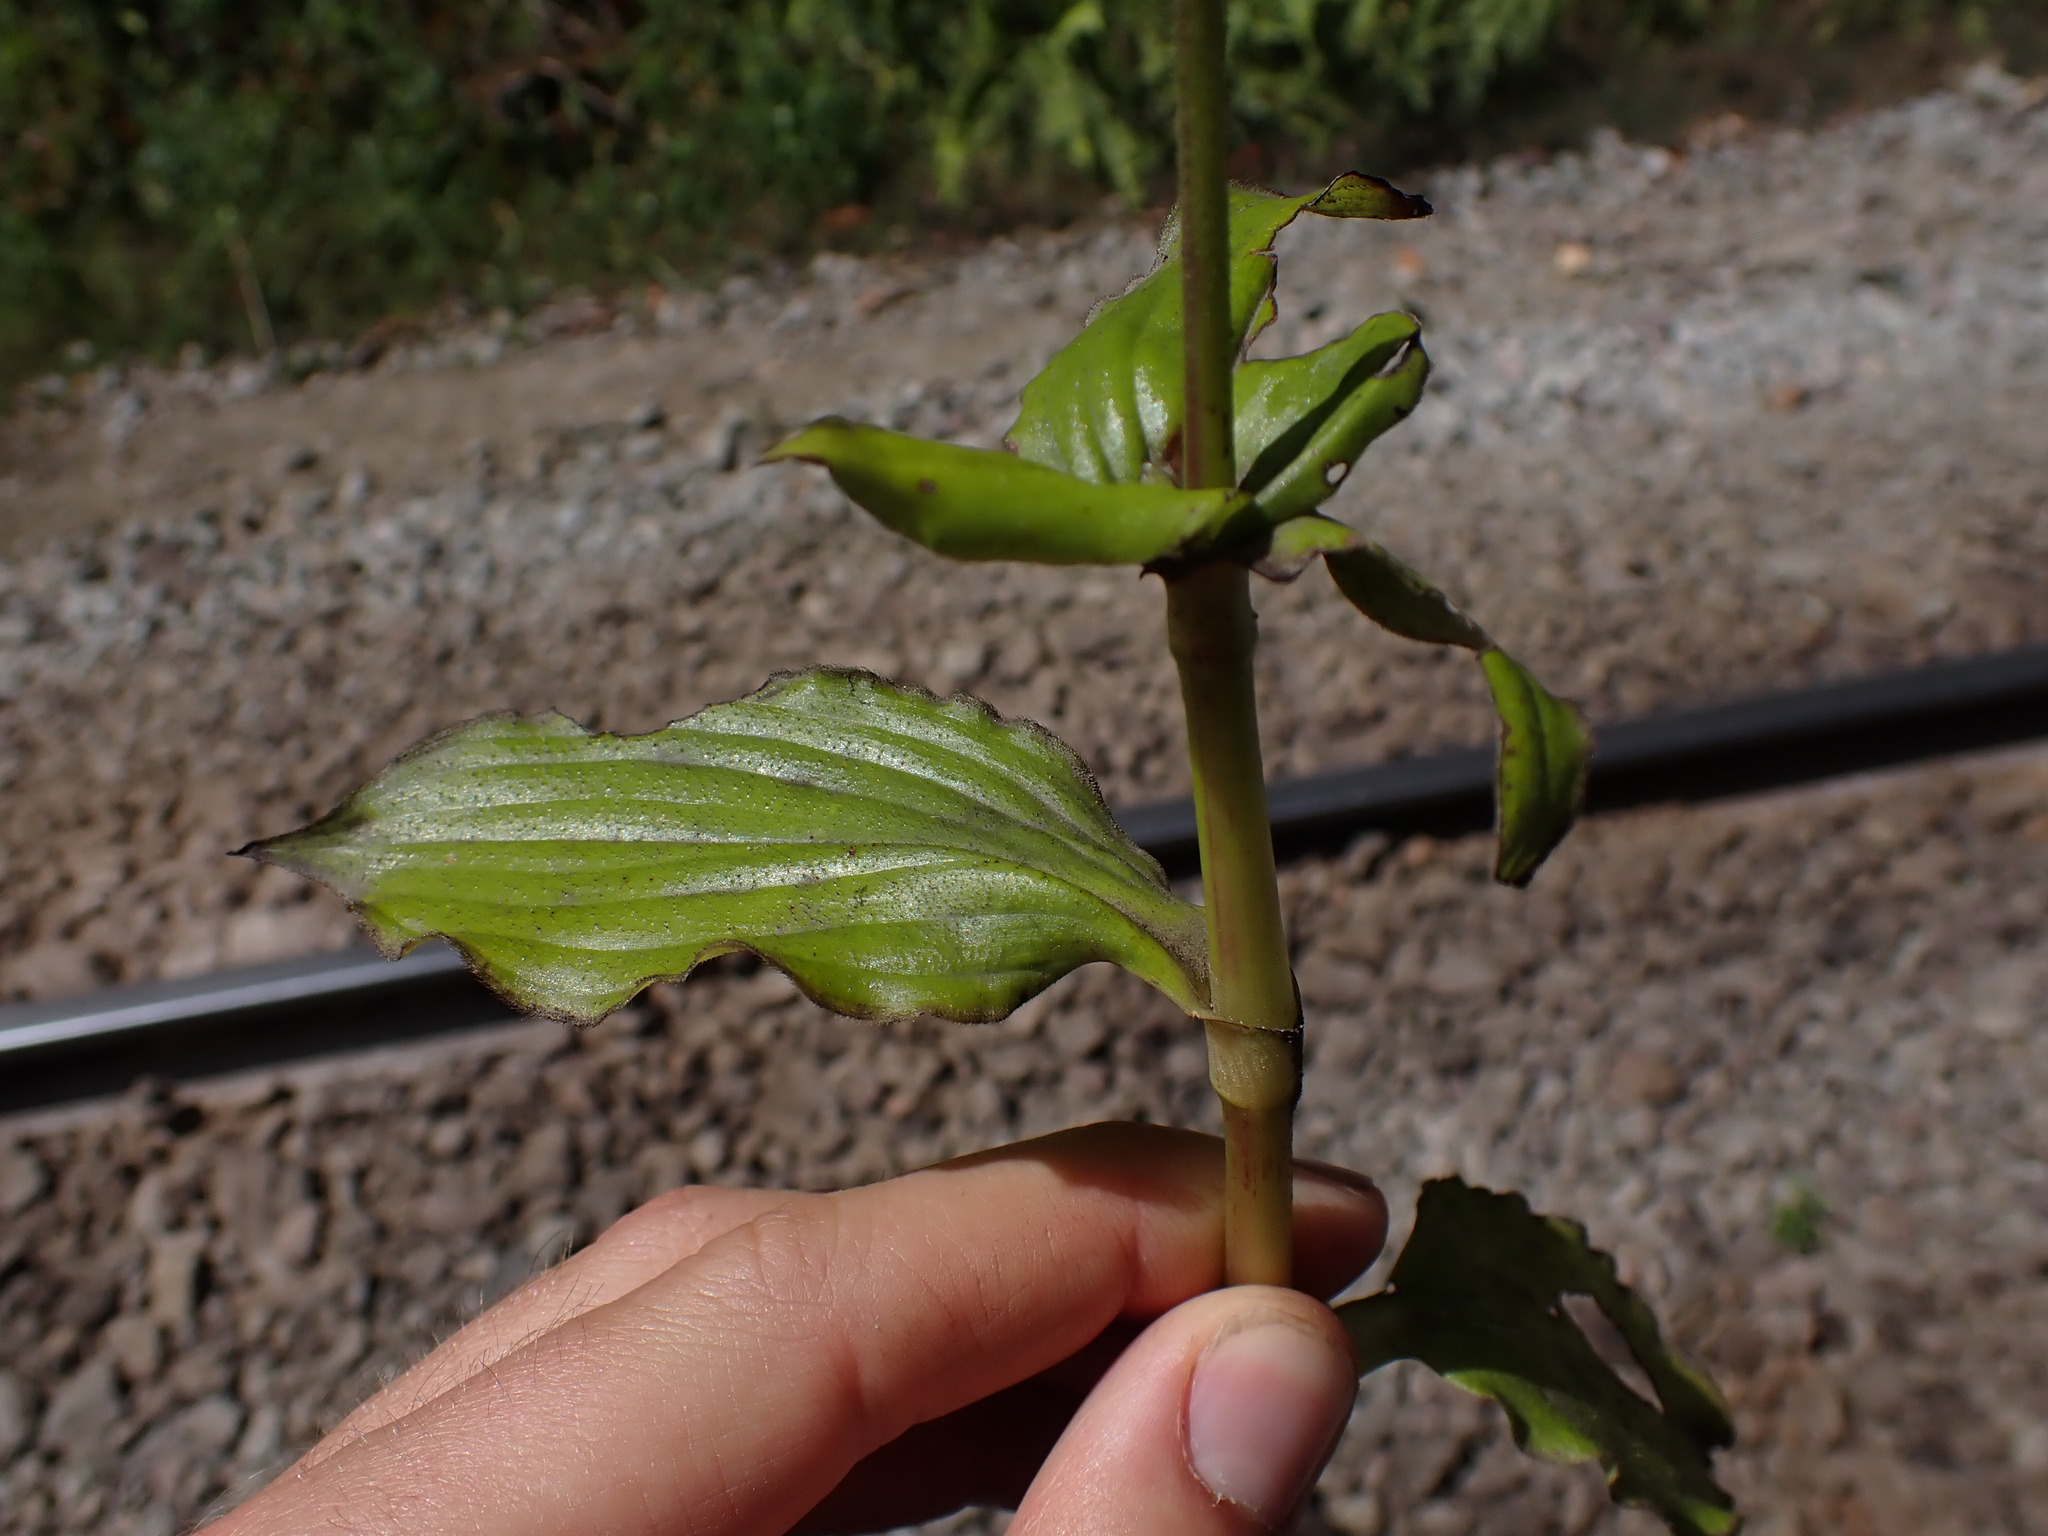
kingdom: Plantae
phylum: Tracheophyta
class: Liliopsida
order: Commelinales
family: Commelinaceae
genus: Tinantia
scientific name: Tinantia standleyi
